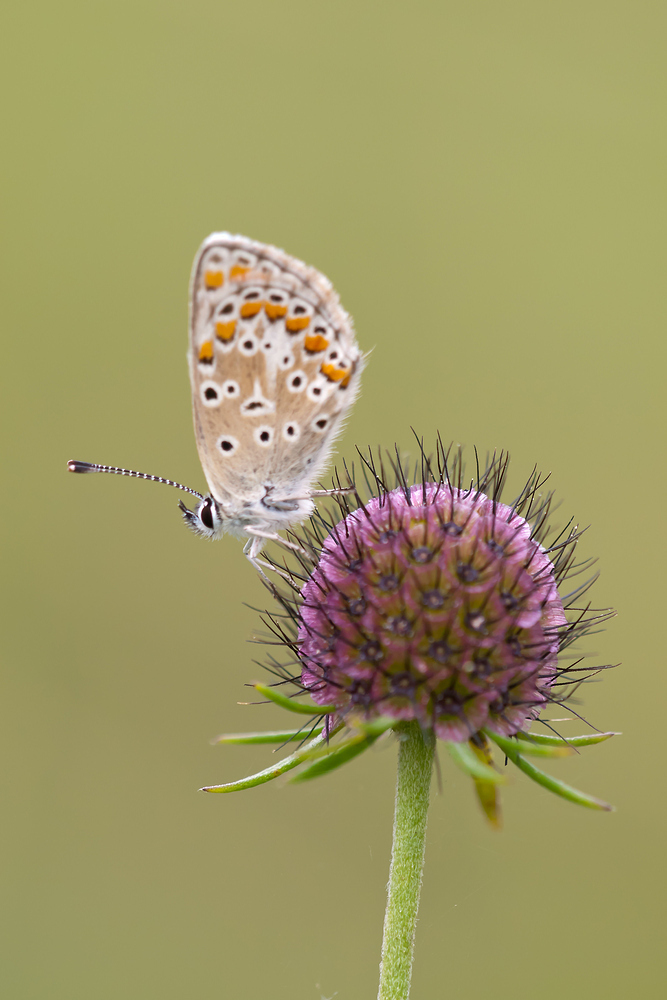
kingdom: Animalia
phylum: Arthropoda
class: Insecta
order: Lepidoptera
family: Lycaenidae
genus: Aricia
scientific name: Aricia agestis
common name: Brown argus
